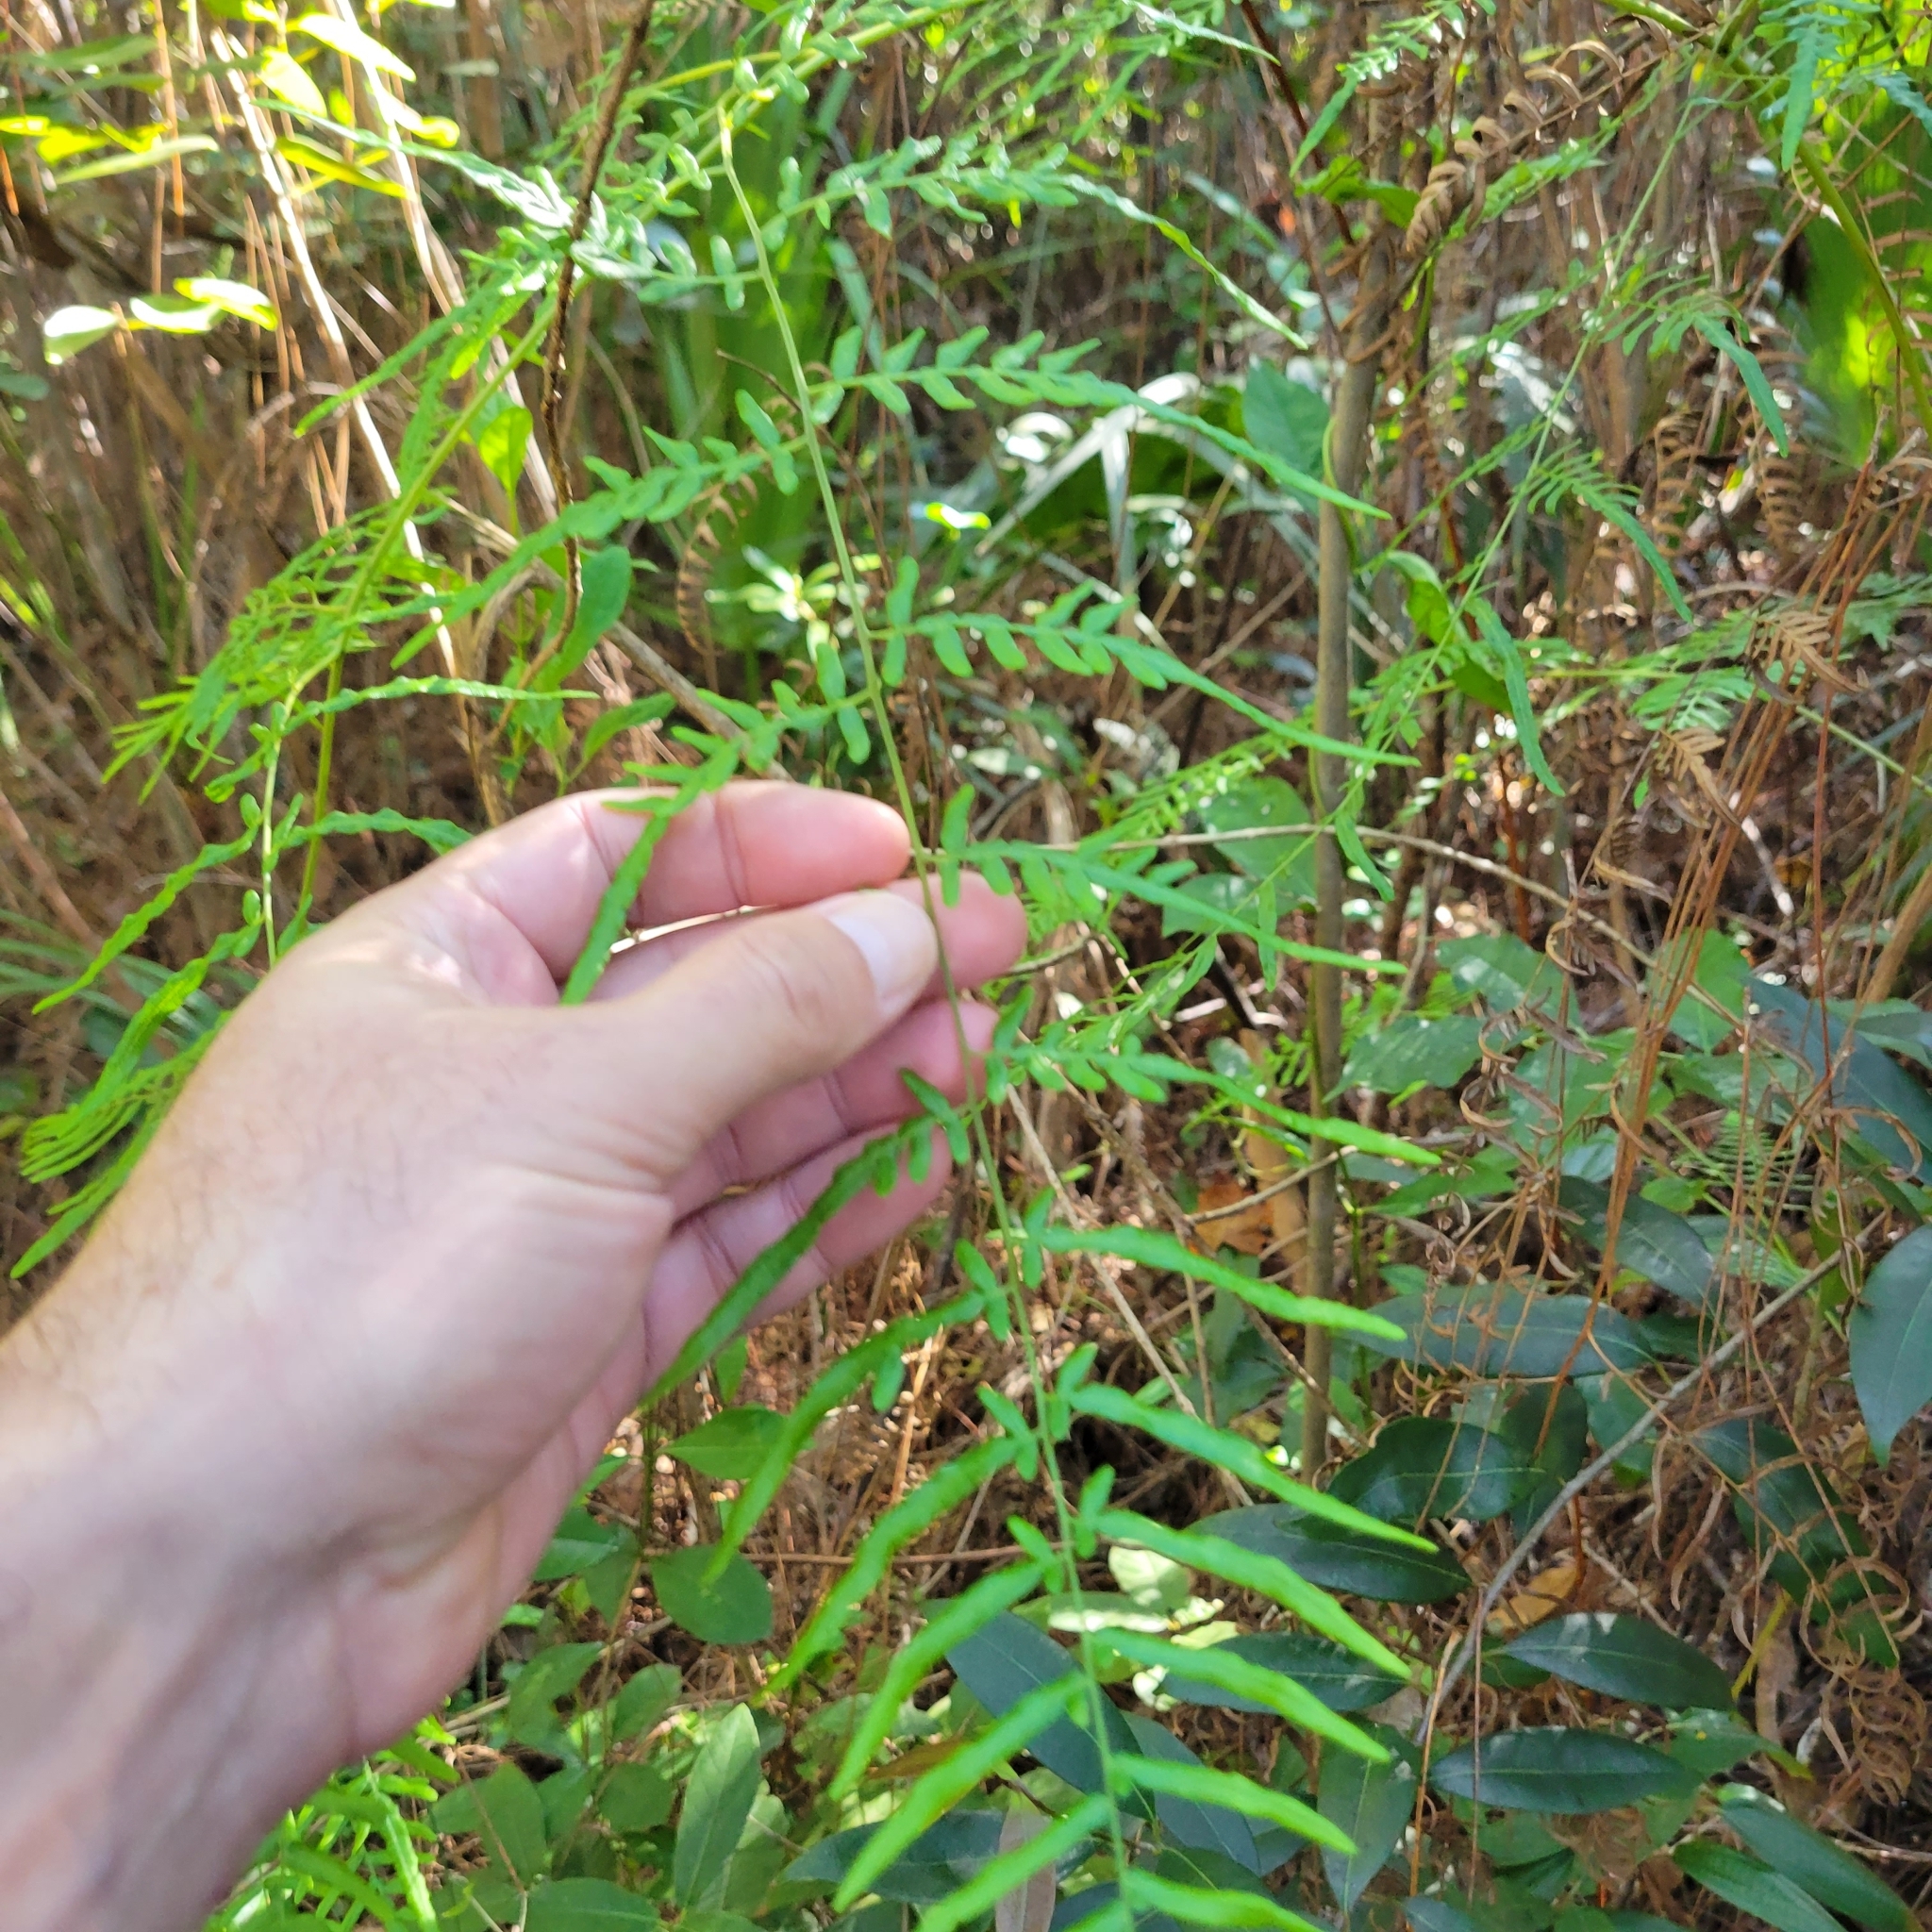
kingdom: Plantae
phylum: Tracheophyta
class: Polypodiopsida
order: Polypodiales
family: Dennstaedtiaceae
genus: Pteridium
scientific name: Pteridium caudatum
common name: Southern bracken fern
